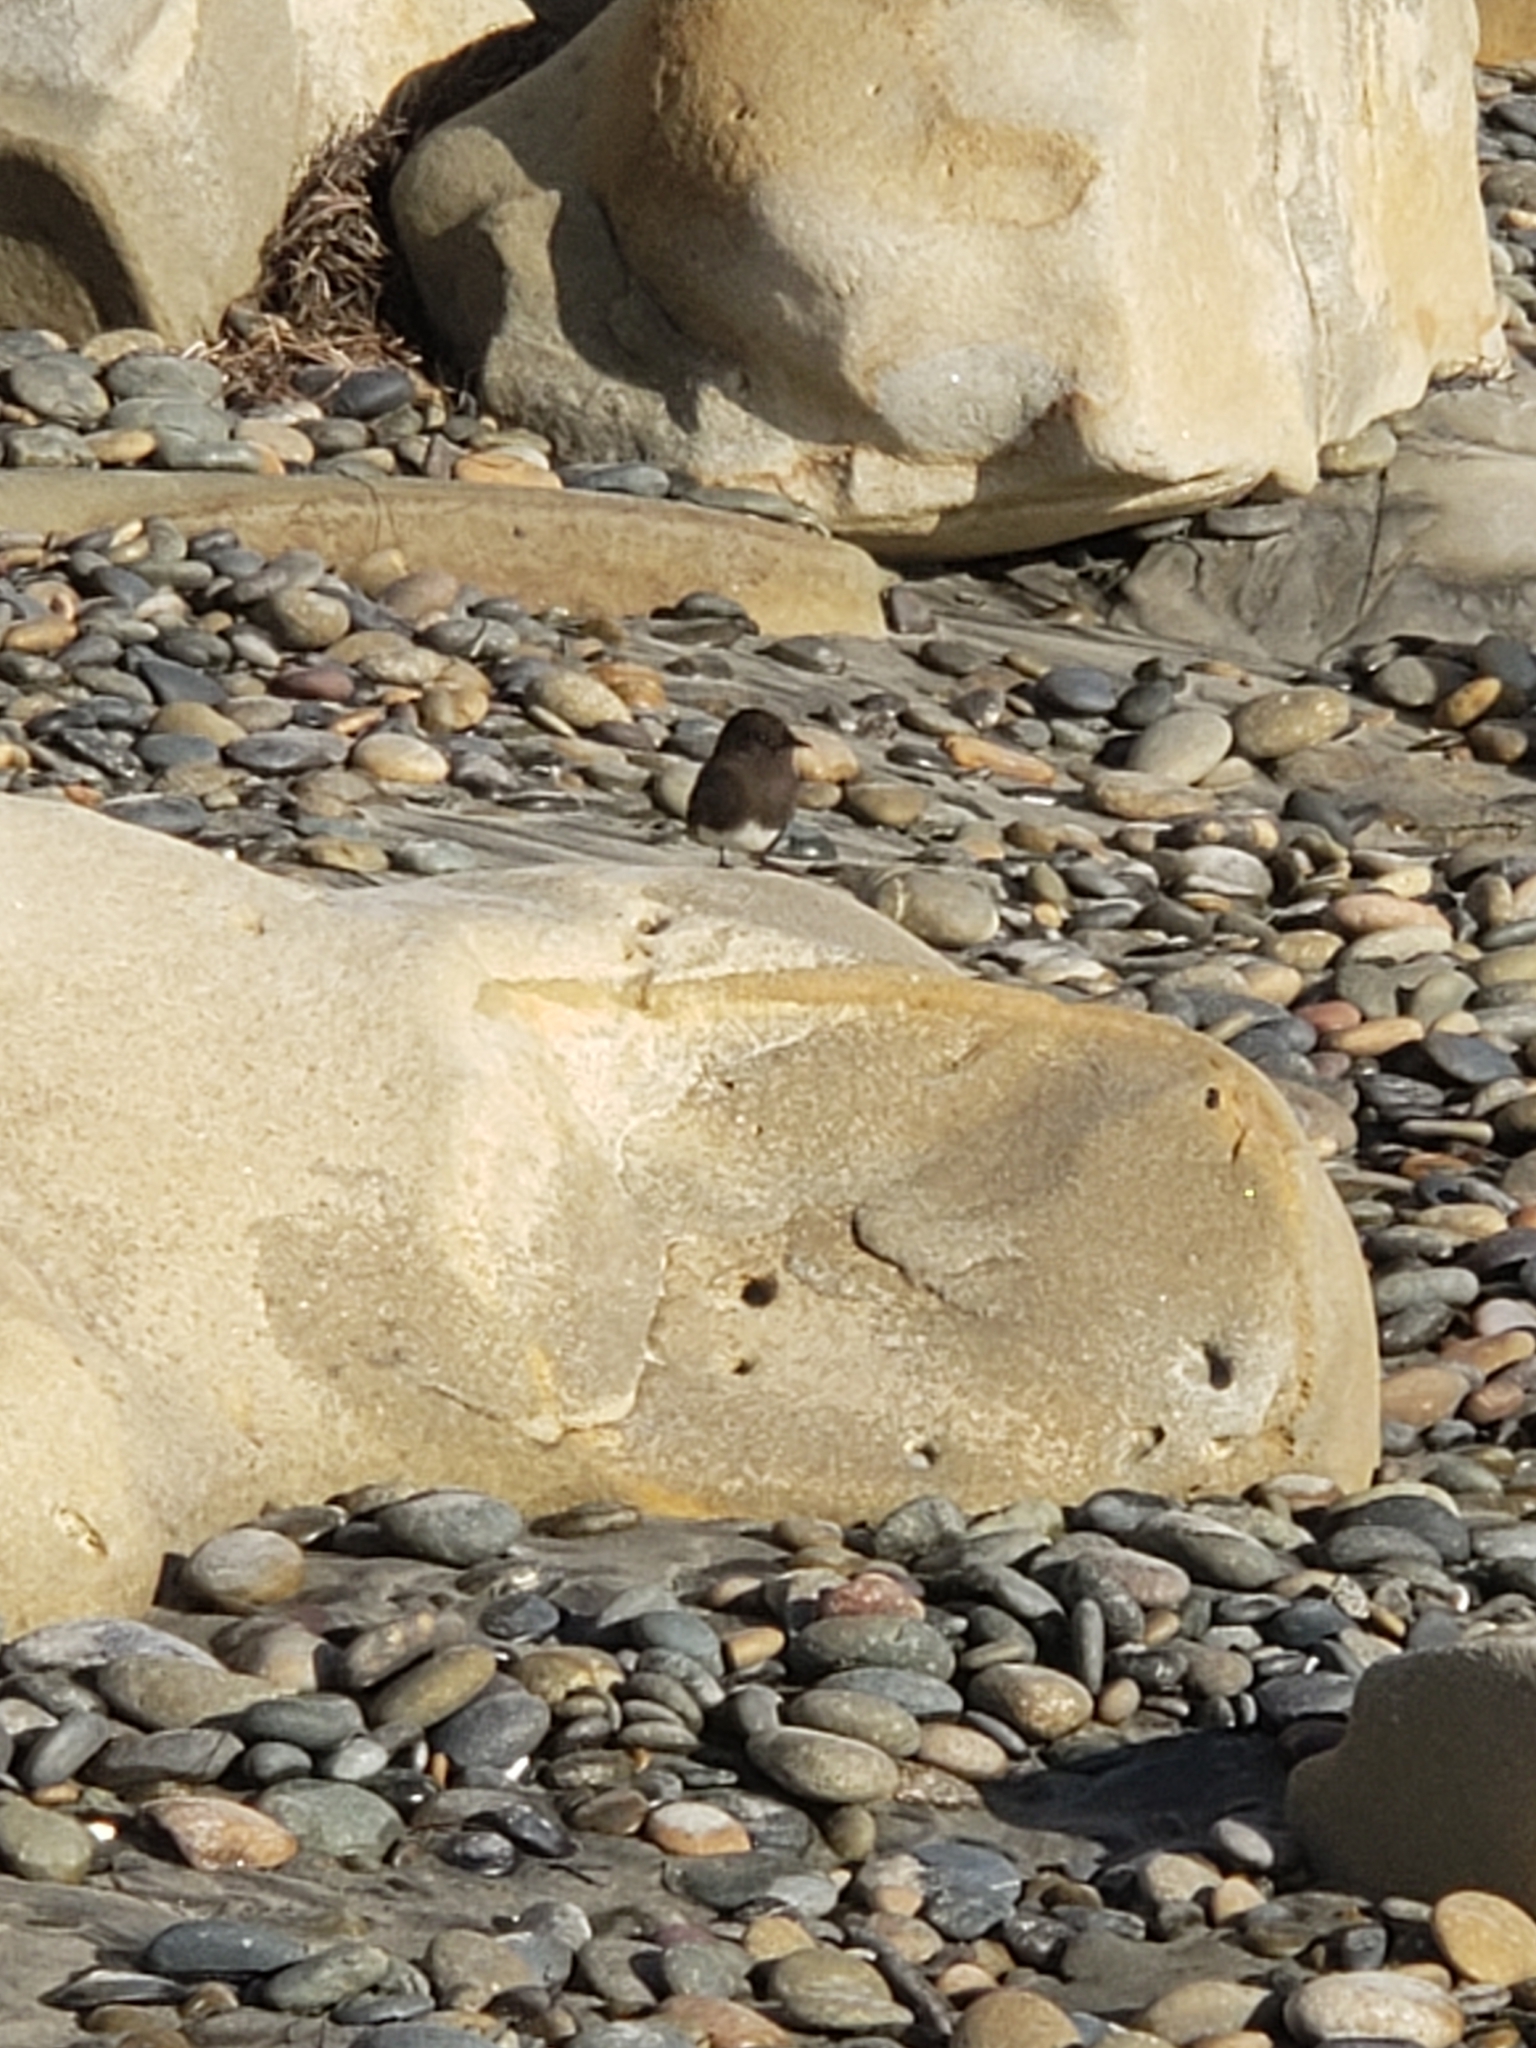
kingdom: Animalia
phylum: Chordata
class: Aves
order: Passeriformes
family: Tyrannidae
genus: Sayornis
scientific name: Sayornis nigricans
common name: Black phoebe
